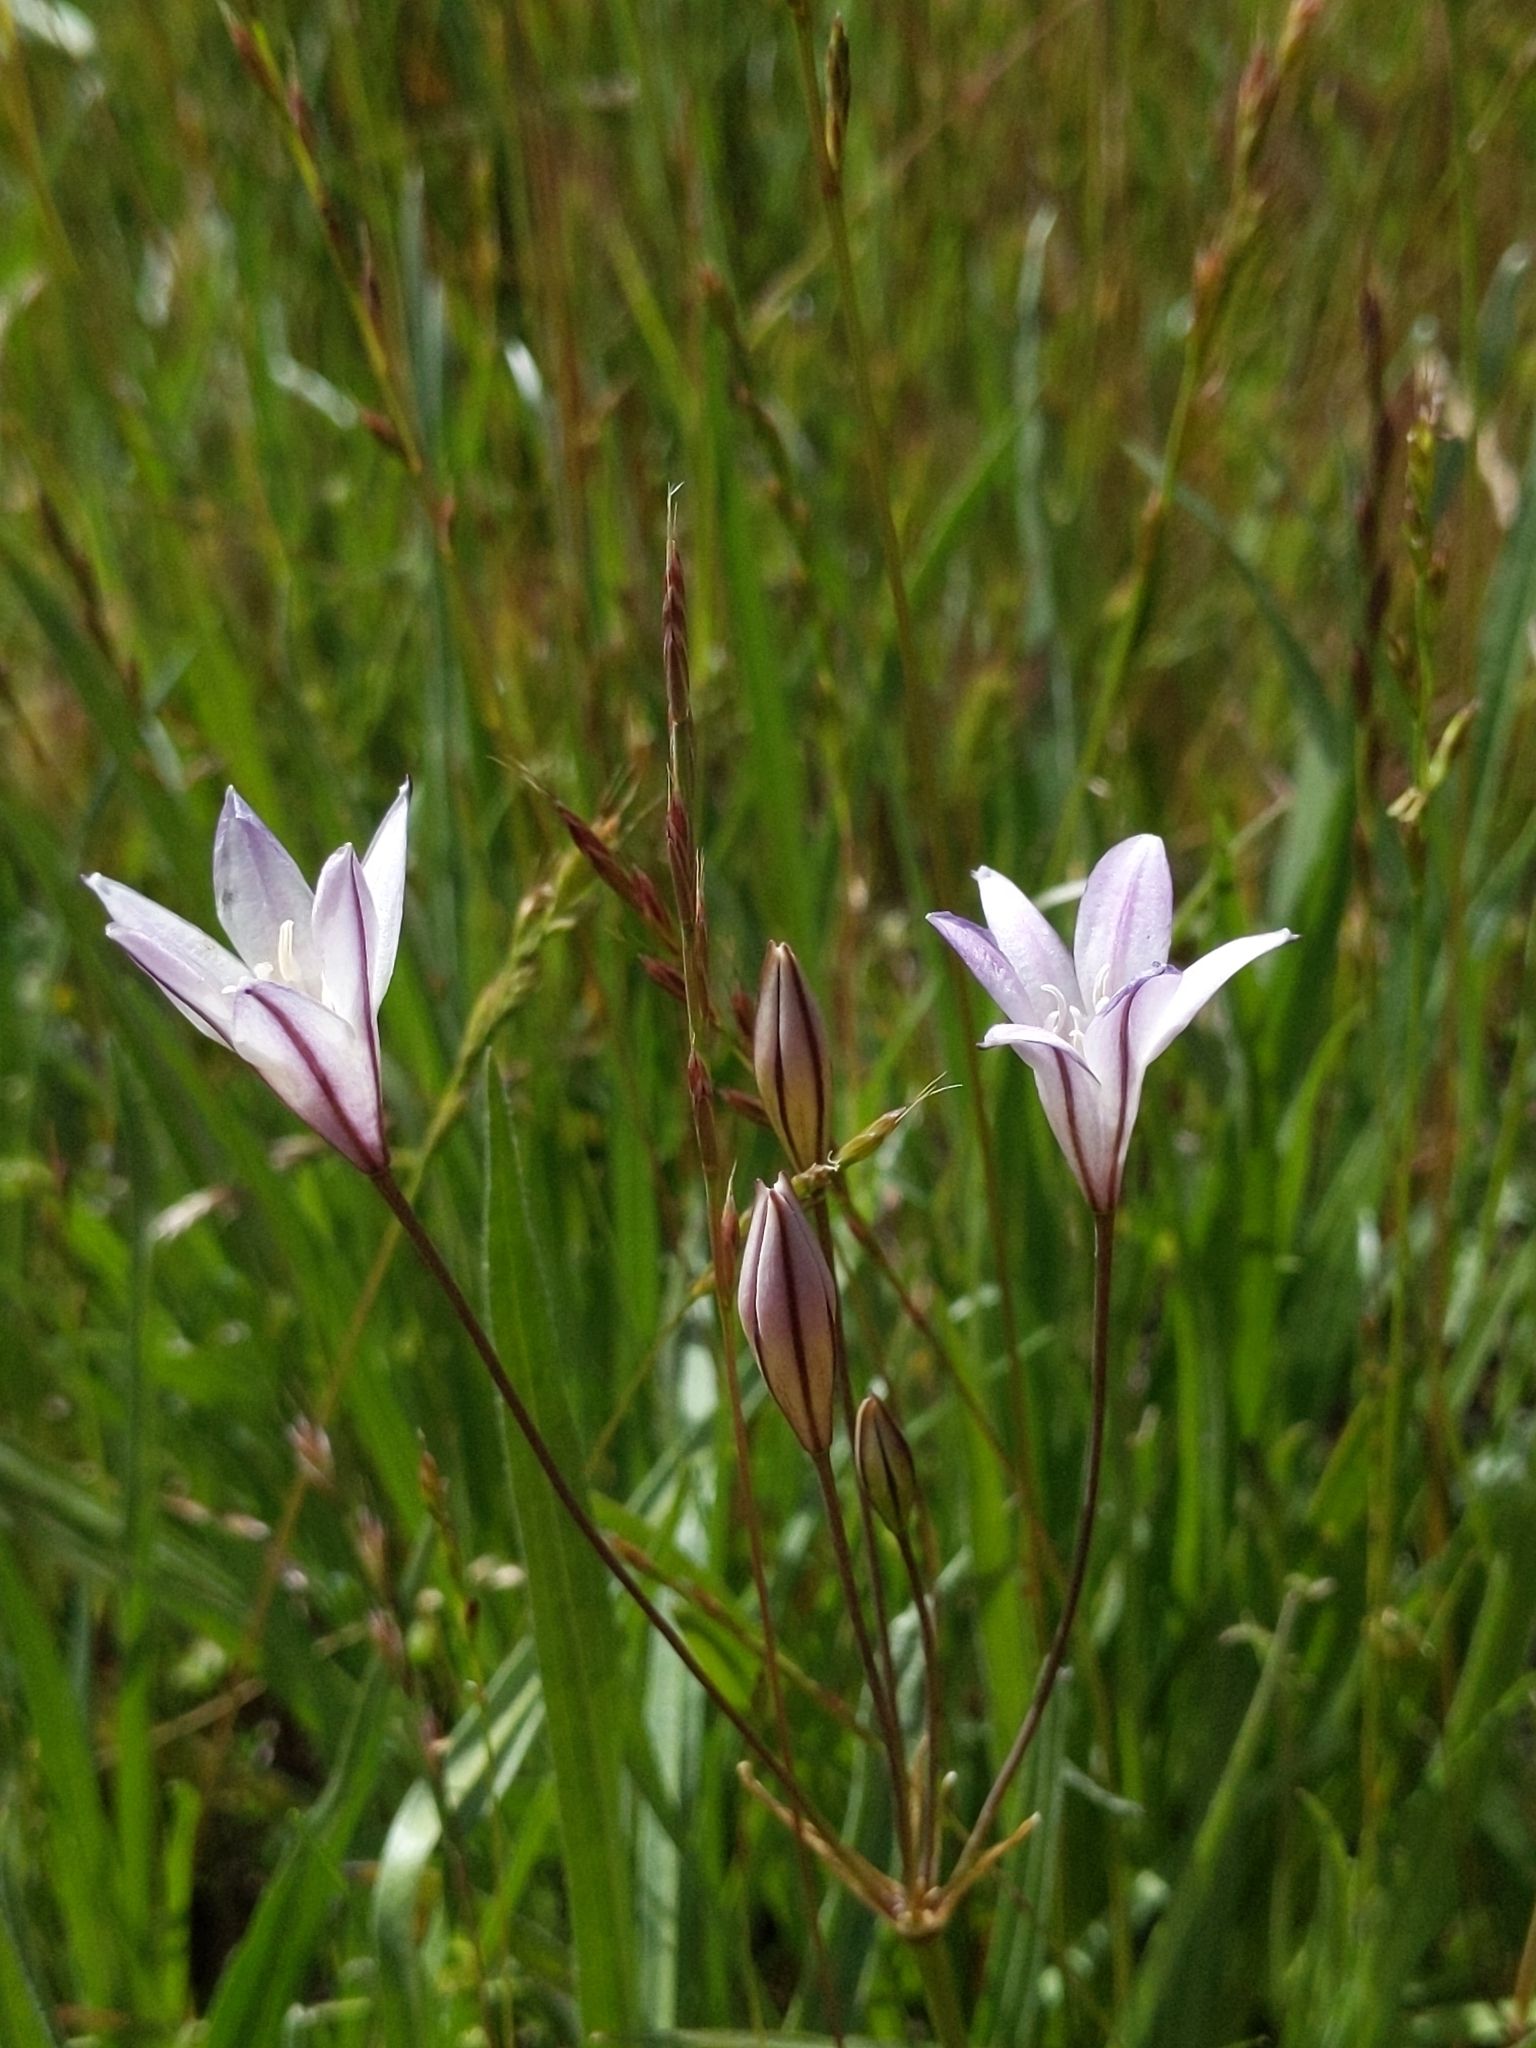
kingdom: Plantae
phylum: Tracheophyta
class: Liliopsida
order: Asparagales
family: Asparagaceae
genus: Triteleia
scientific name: Triteleia peduncularis
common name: Long-ray brodiaea
